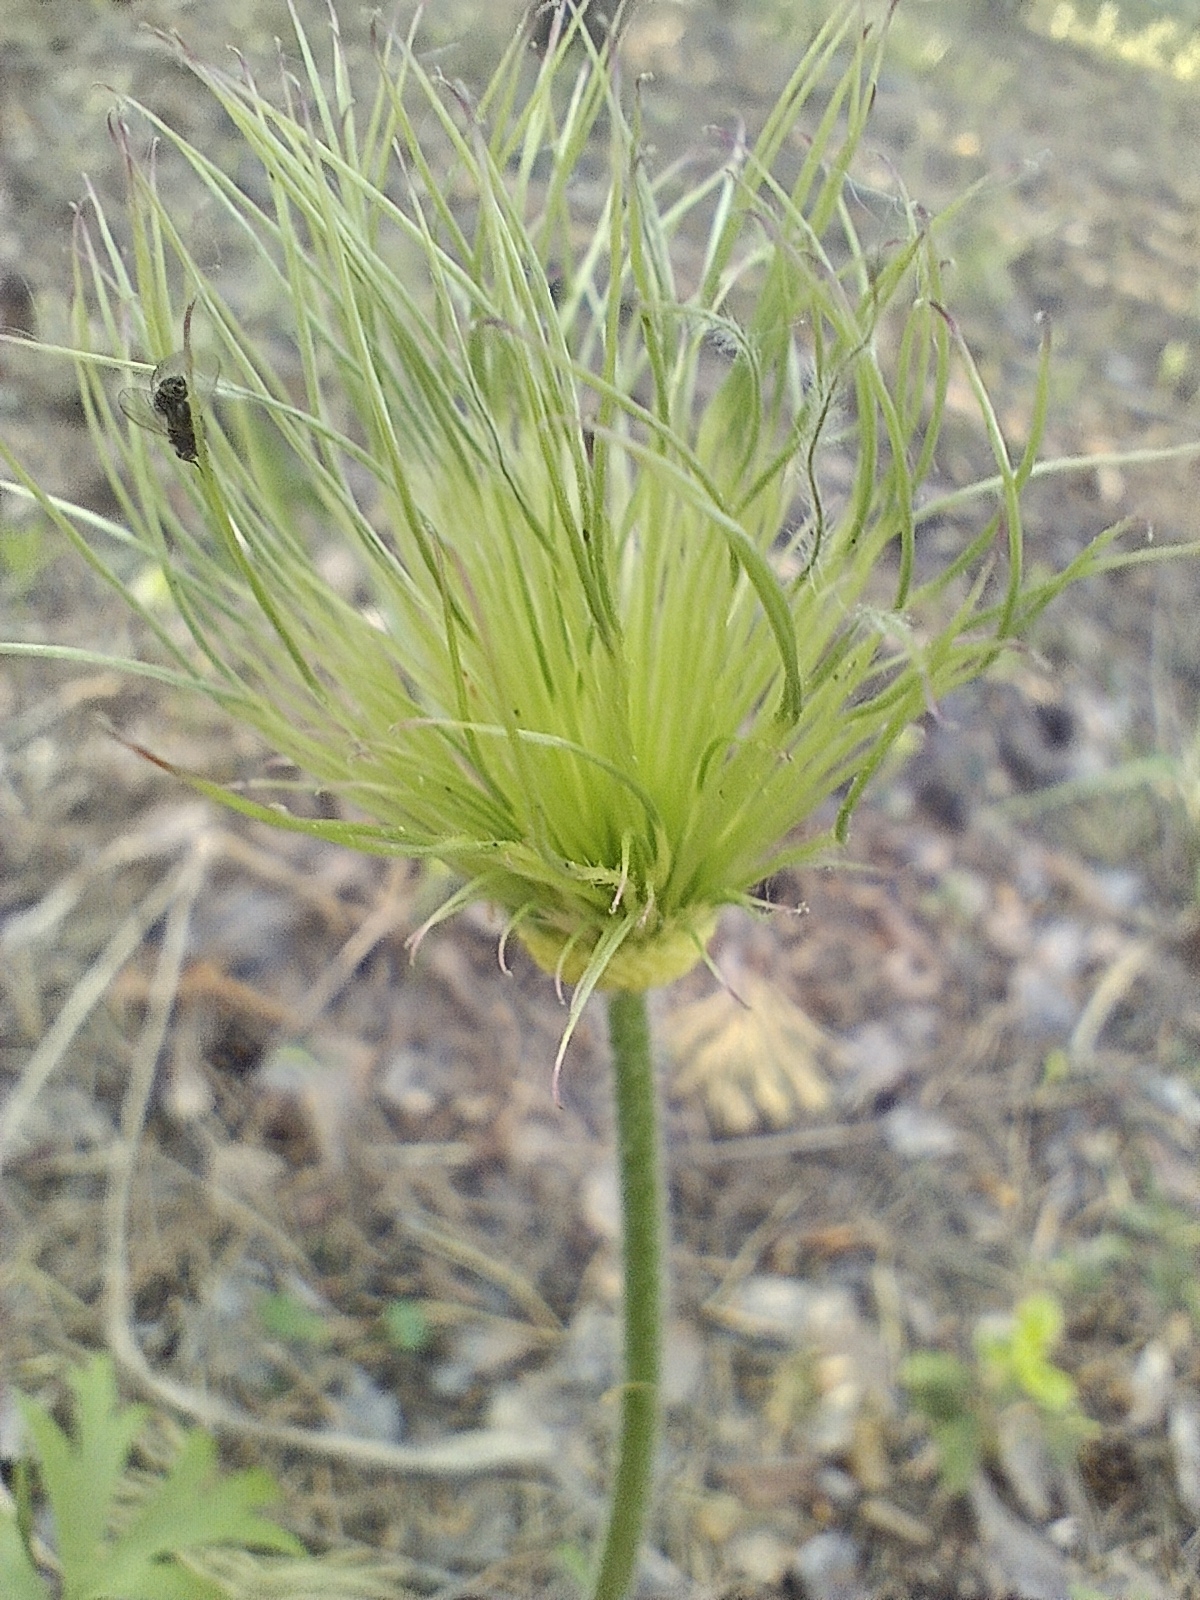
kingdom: Plantae
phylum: Tracheophyta
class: Magnoliopsida
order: Ranunculales
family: Ranunculaceae
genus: Pulsatilla
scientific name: Pulsatilla patens
